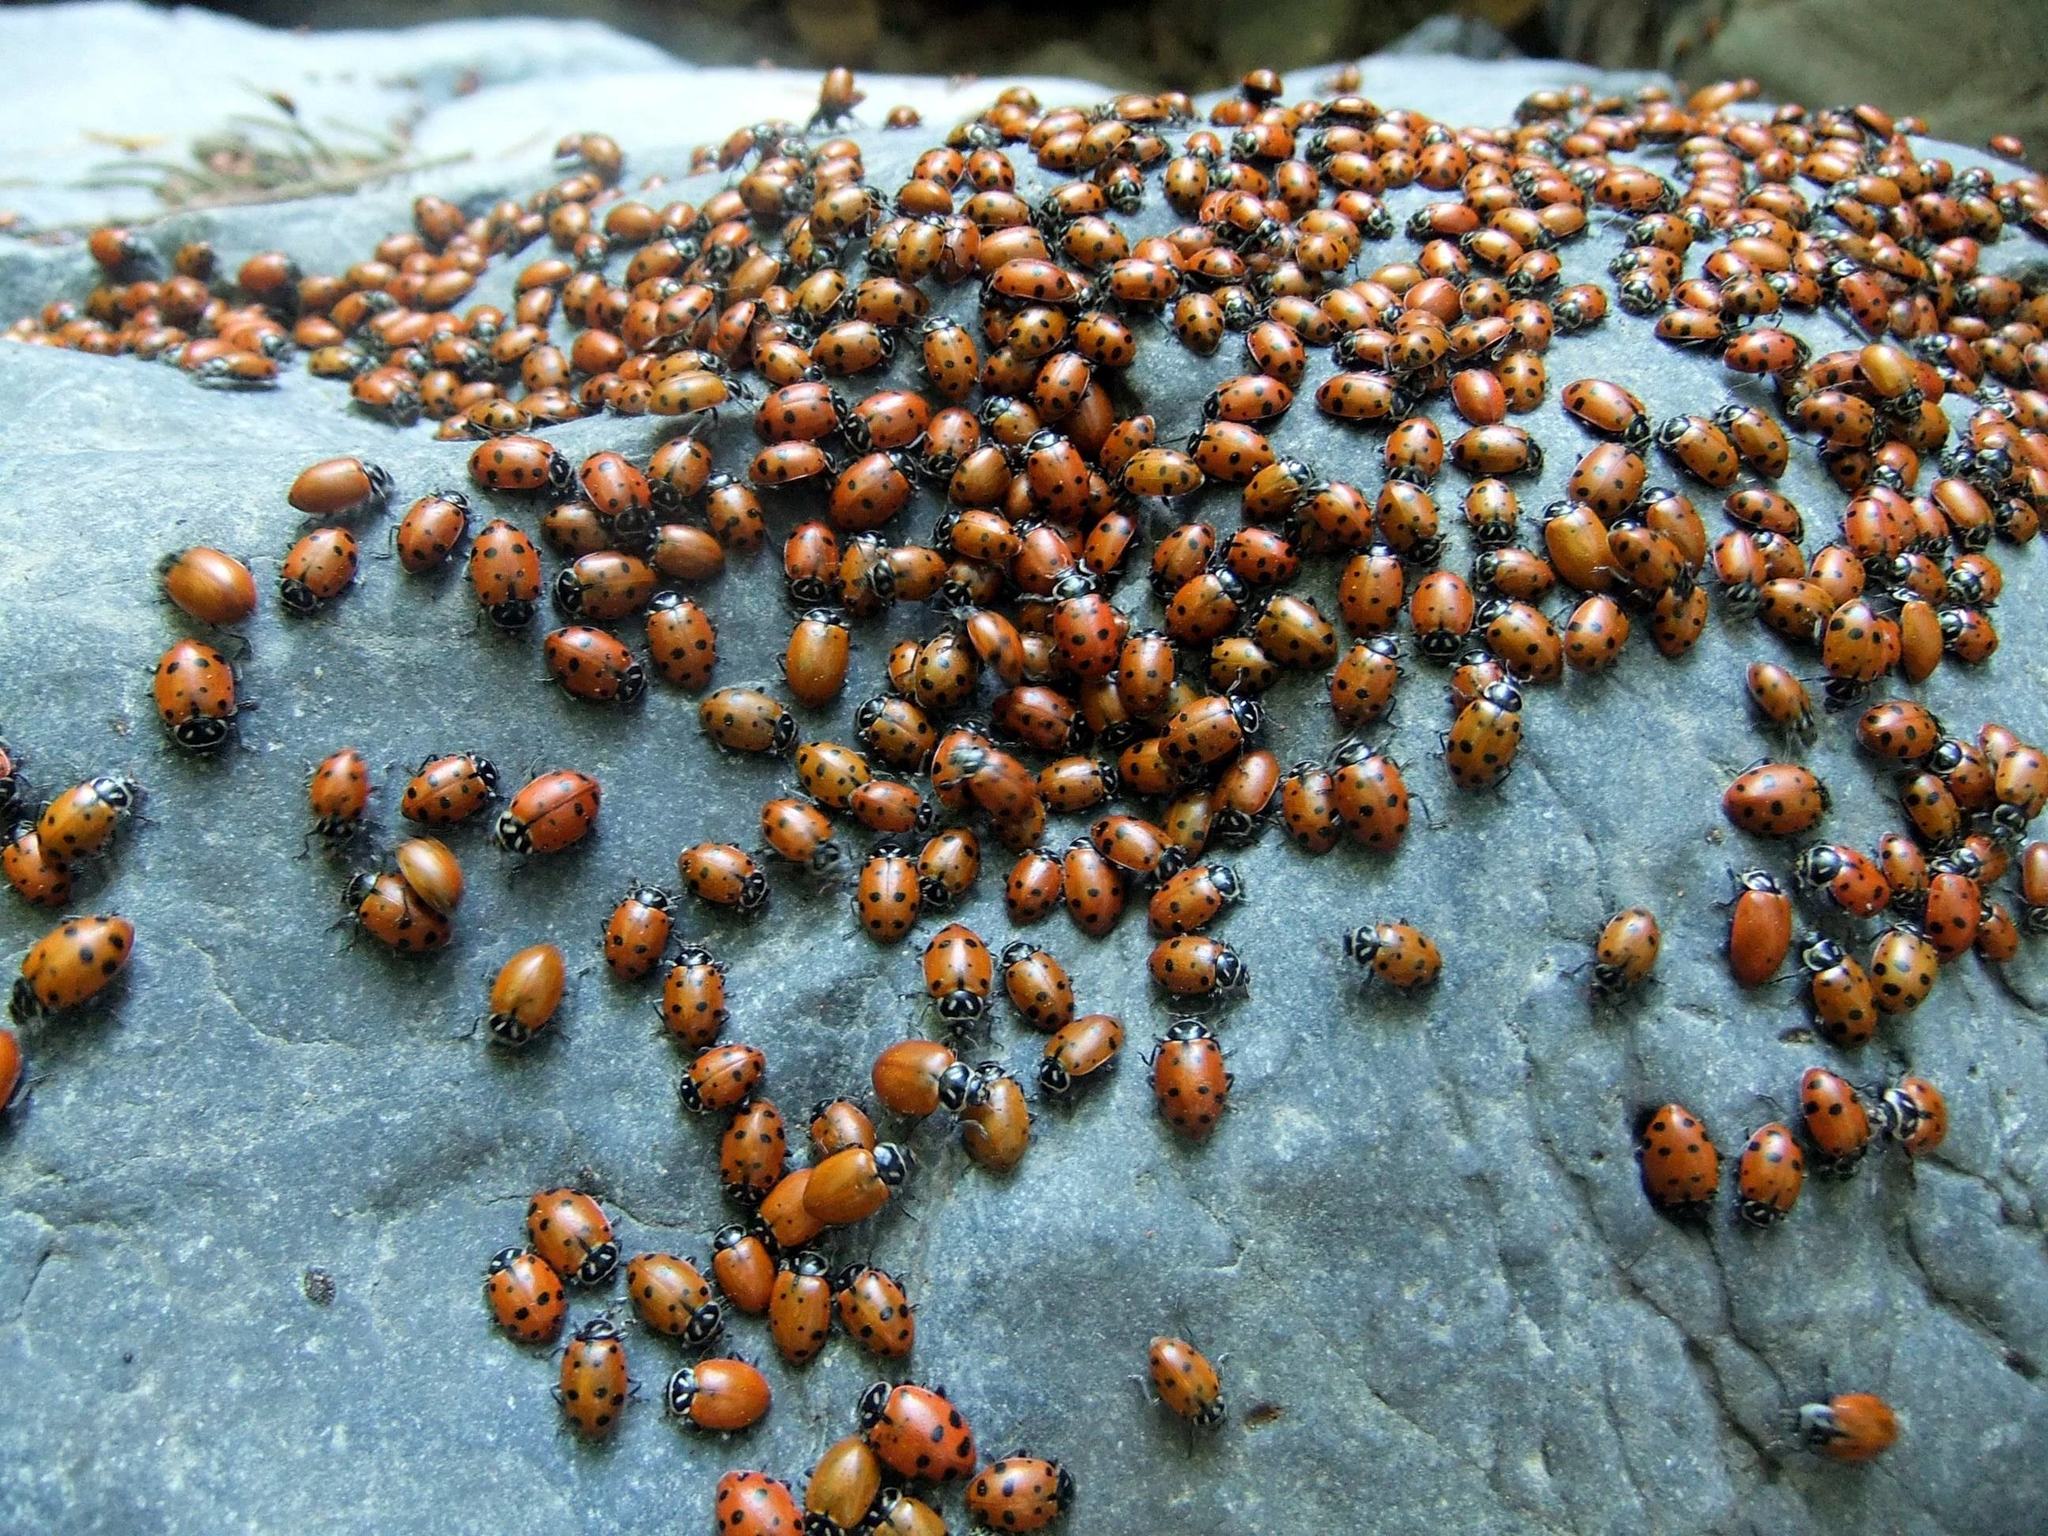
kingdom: Animalia
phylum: Arthropoda
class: Insecta
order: Coleoptera
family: Coccinellidae
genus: Hippodamia
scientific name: Hippodamia convergens
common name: Convergent lady beetle
